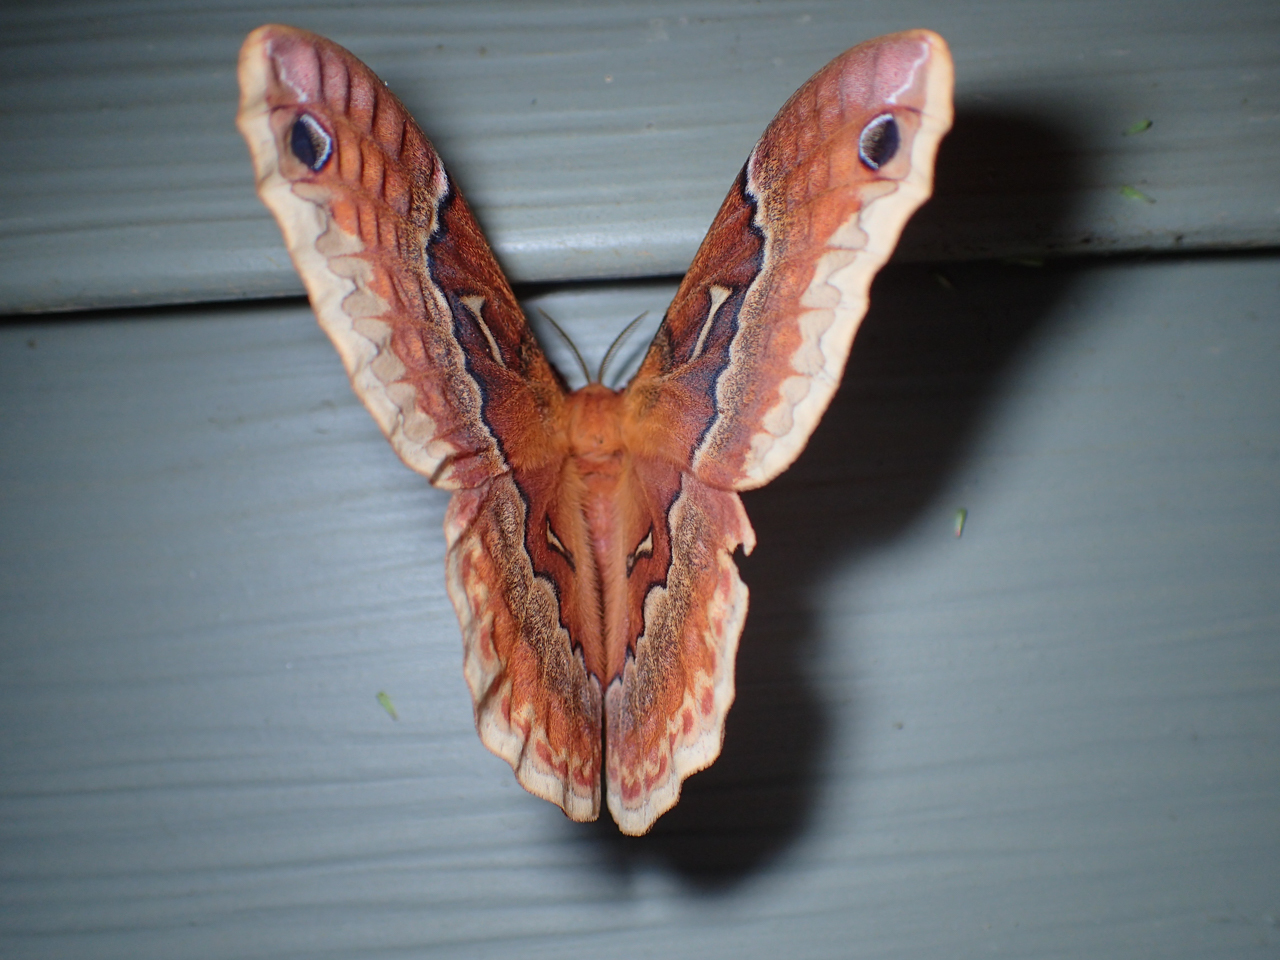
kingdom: Animalia
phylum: Arthropoda
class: Insecta
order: Lepidoptera
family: Saturniidae
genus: Callosamia
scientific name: Callosamia angulifera
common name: Tulip tree silkmoth
